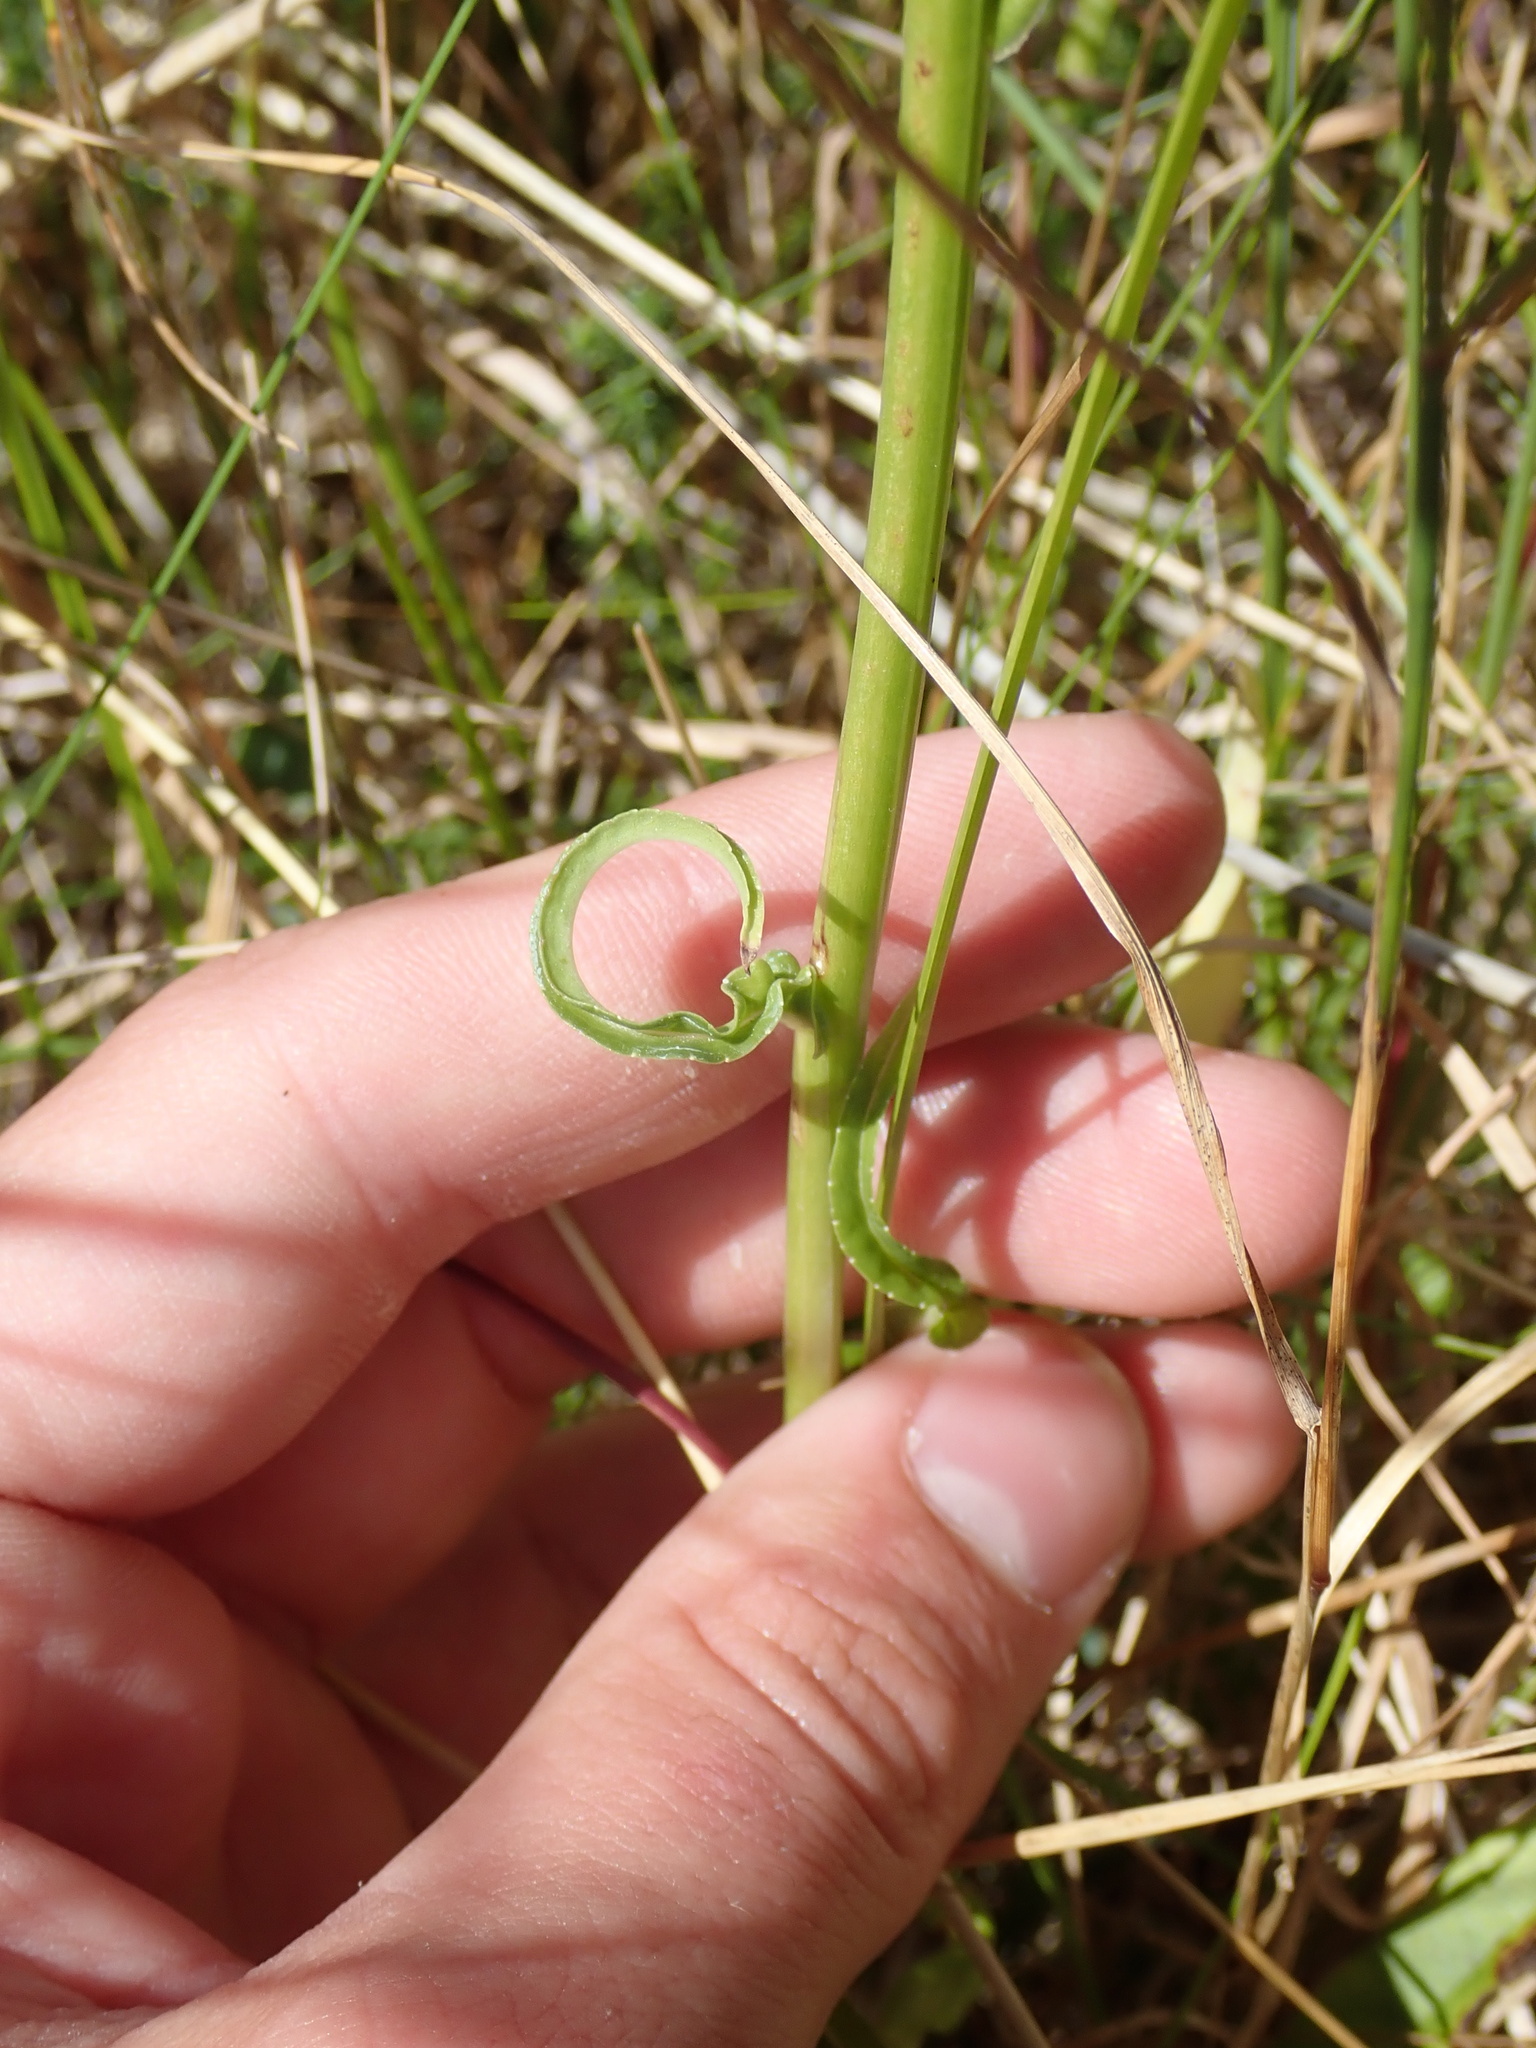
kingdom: Plantae
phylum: Tracheophyta
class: Magnoliopsida
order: Asterales
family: Campanulaceae
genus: Campanula
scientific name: Campanula persicifolia
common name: Peach-leaved bellflower
